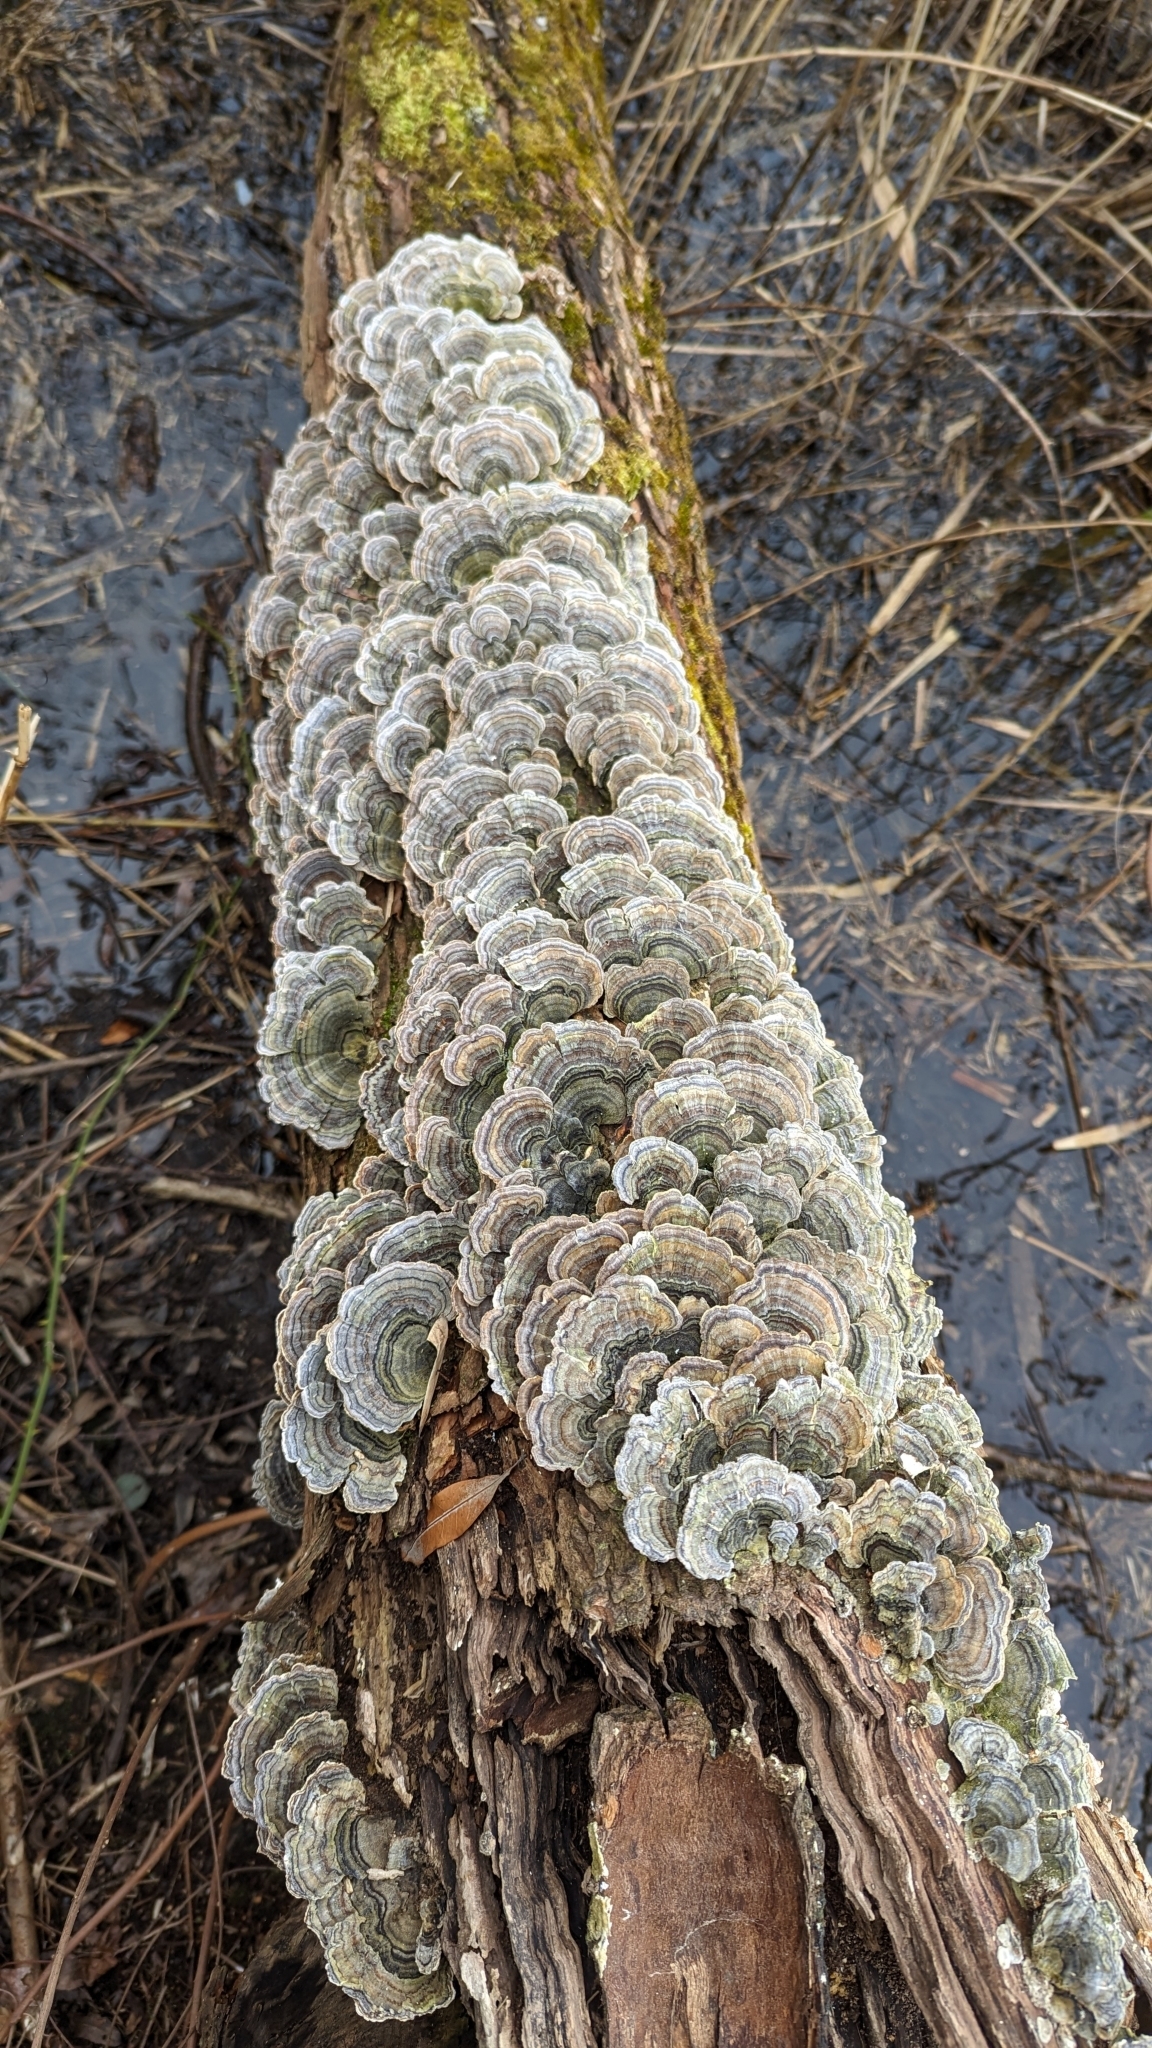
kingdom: Fungi
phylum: Basidiomycota
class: Agaricomycetes
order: Polyporales
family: Polyporaceae
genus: Trametes
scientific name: Trametes versicolor
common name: Turkeytail
